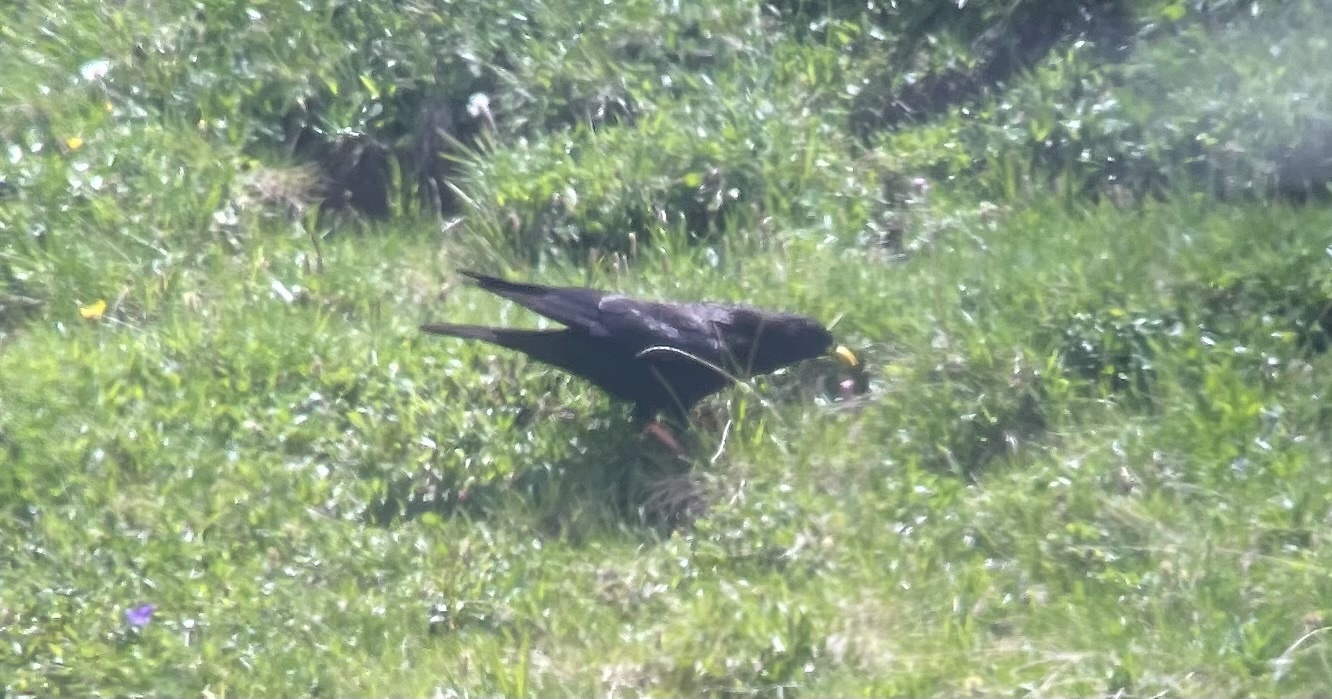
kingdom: Animalia
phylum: Chordata
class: Aves
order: Passeriformes
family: Corvidae
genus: Pyrrhocorax
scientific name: Pyrrhocorax graculus
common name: Alpine chough
